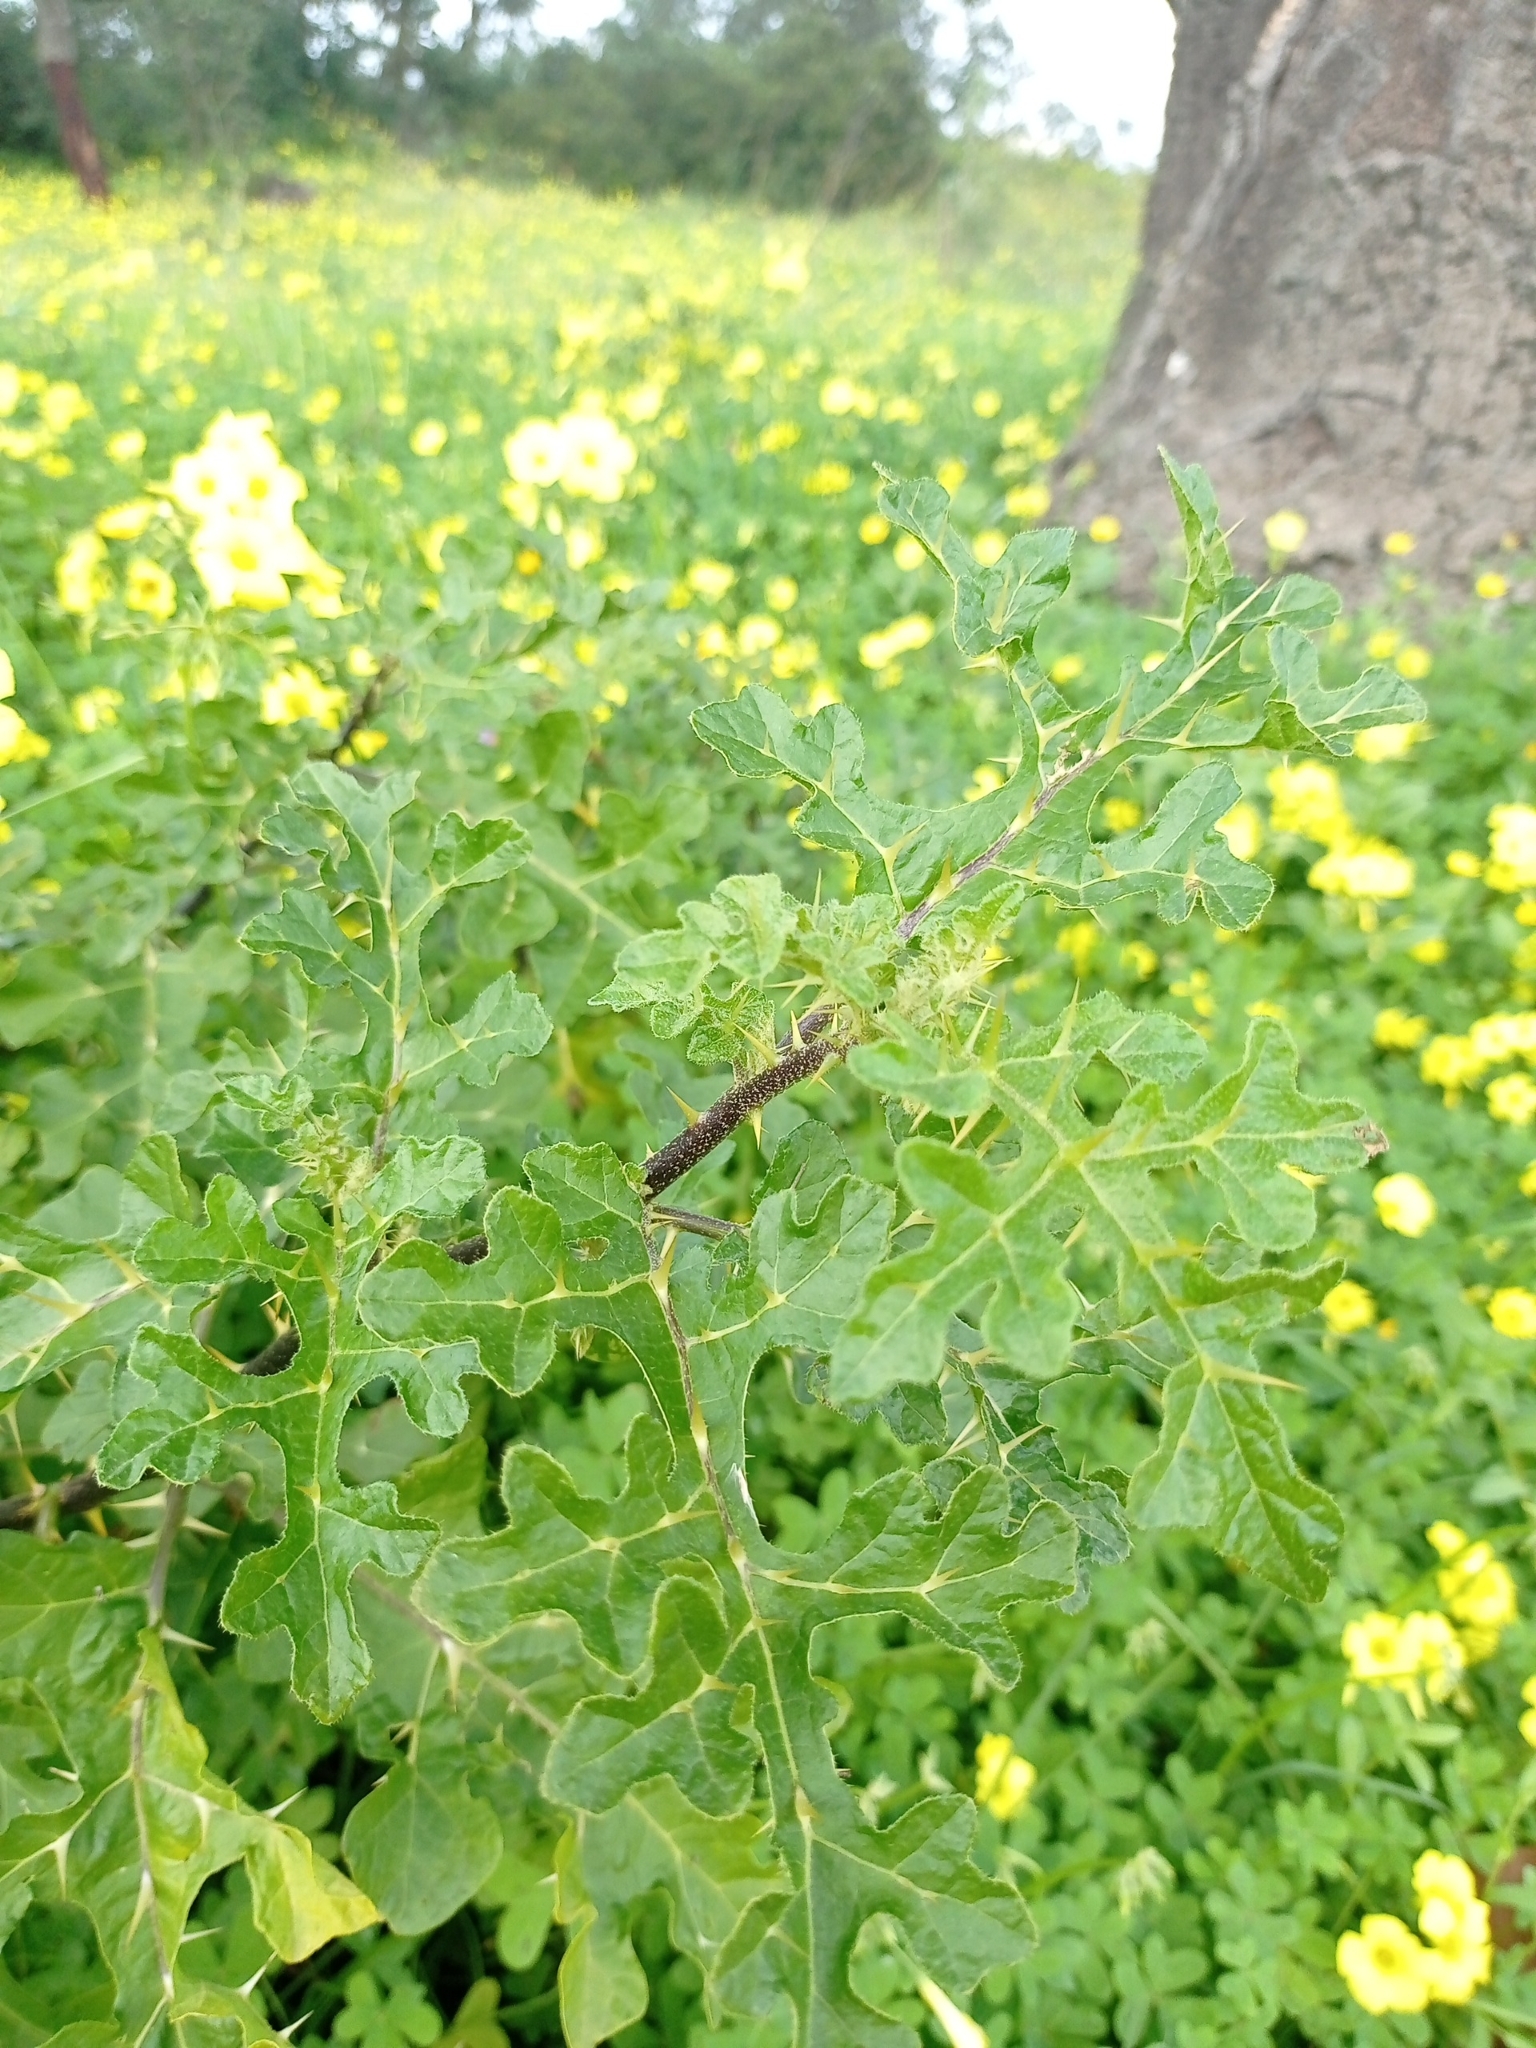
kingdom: Plantae
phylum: Tracheophyta
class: Magnoliopsida
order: Solanales
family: Solanaceae
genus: Solanum
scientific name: Solanum linnaeanum
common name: Nightshade
